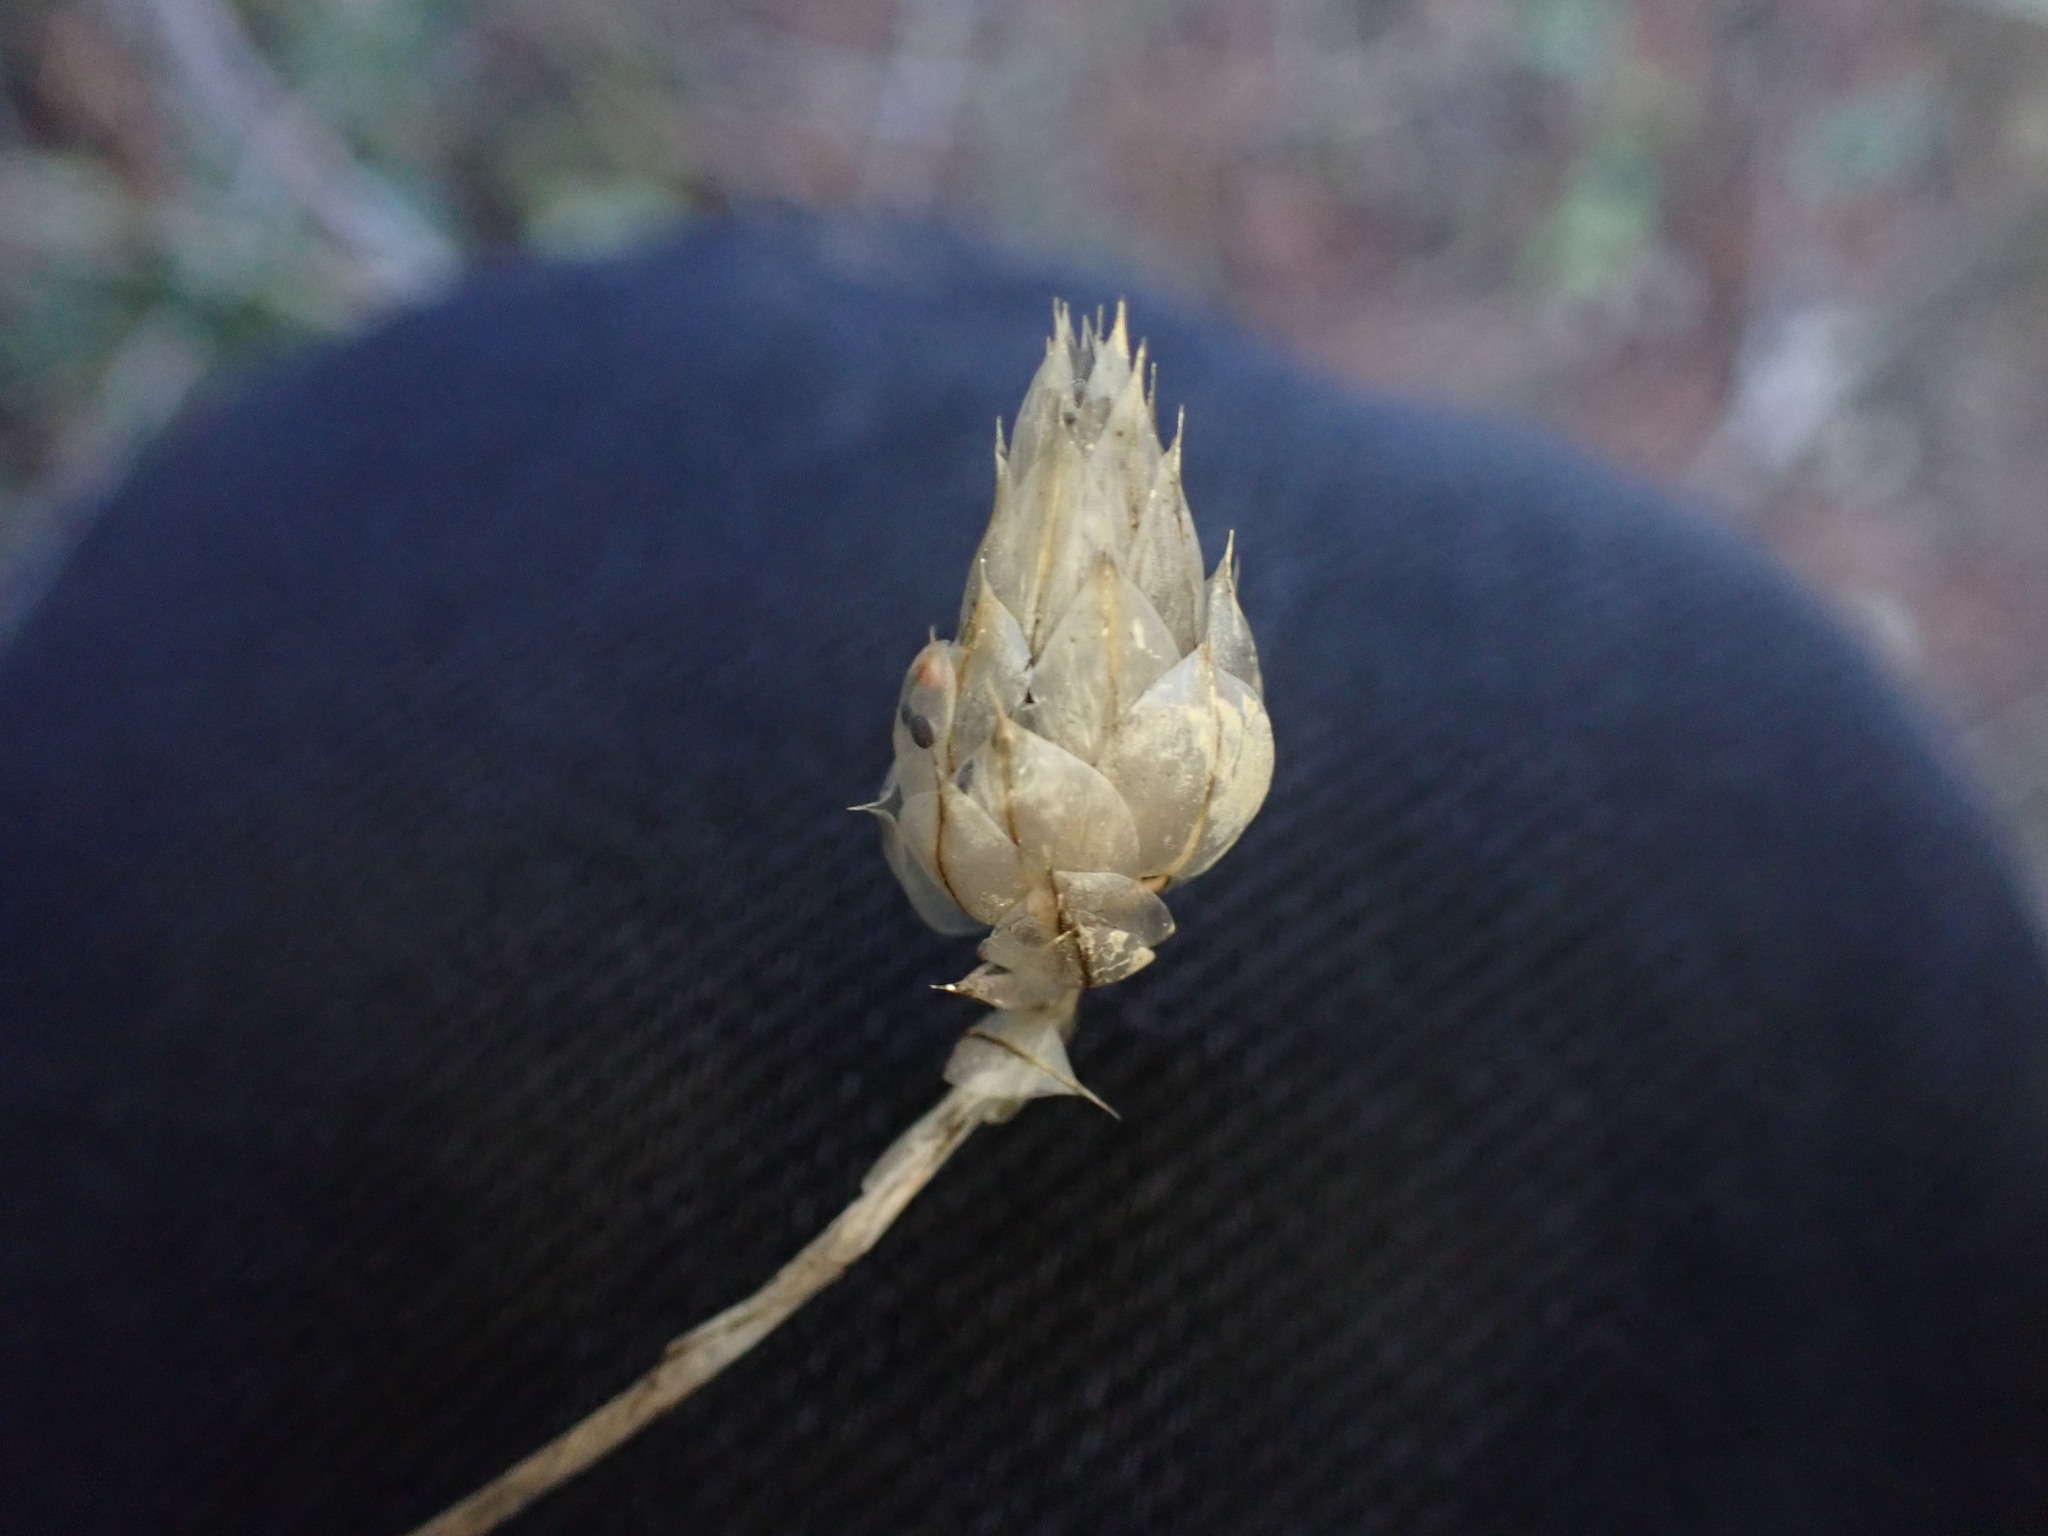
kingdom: Plantae
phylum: Tracheophyta
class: Magnoliopsida
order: Asterales
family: Asteraceae
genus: Catananche
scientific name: Catananche caerulea
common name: Blue cupidone
